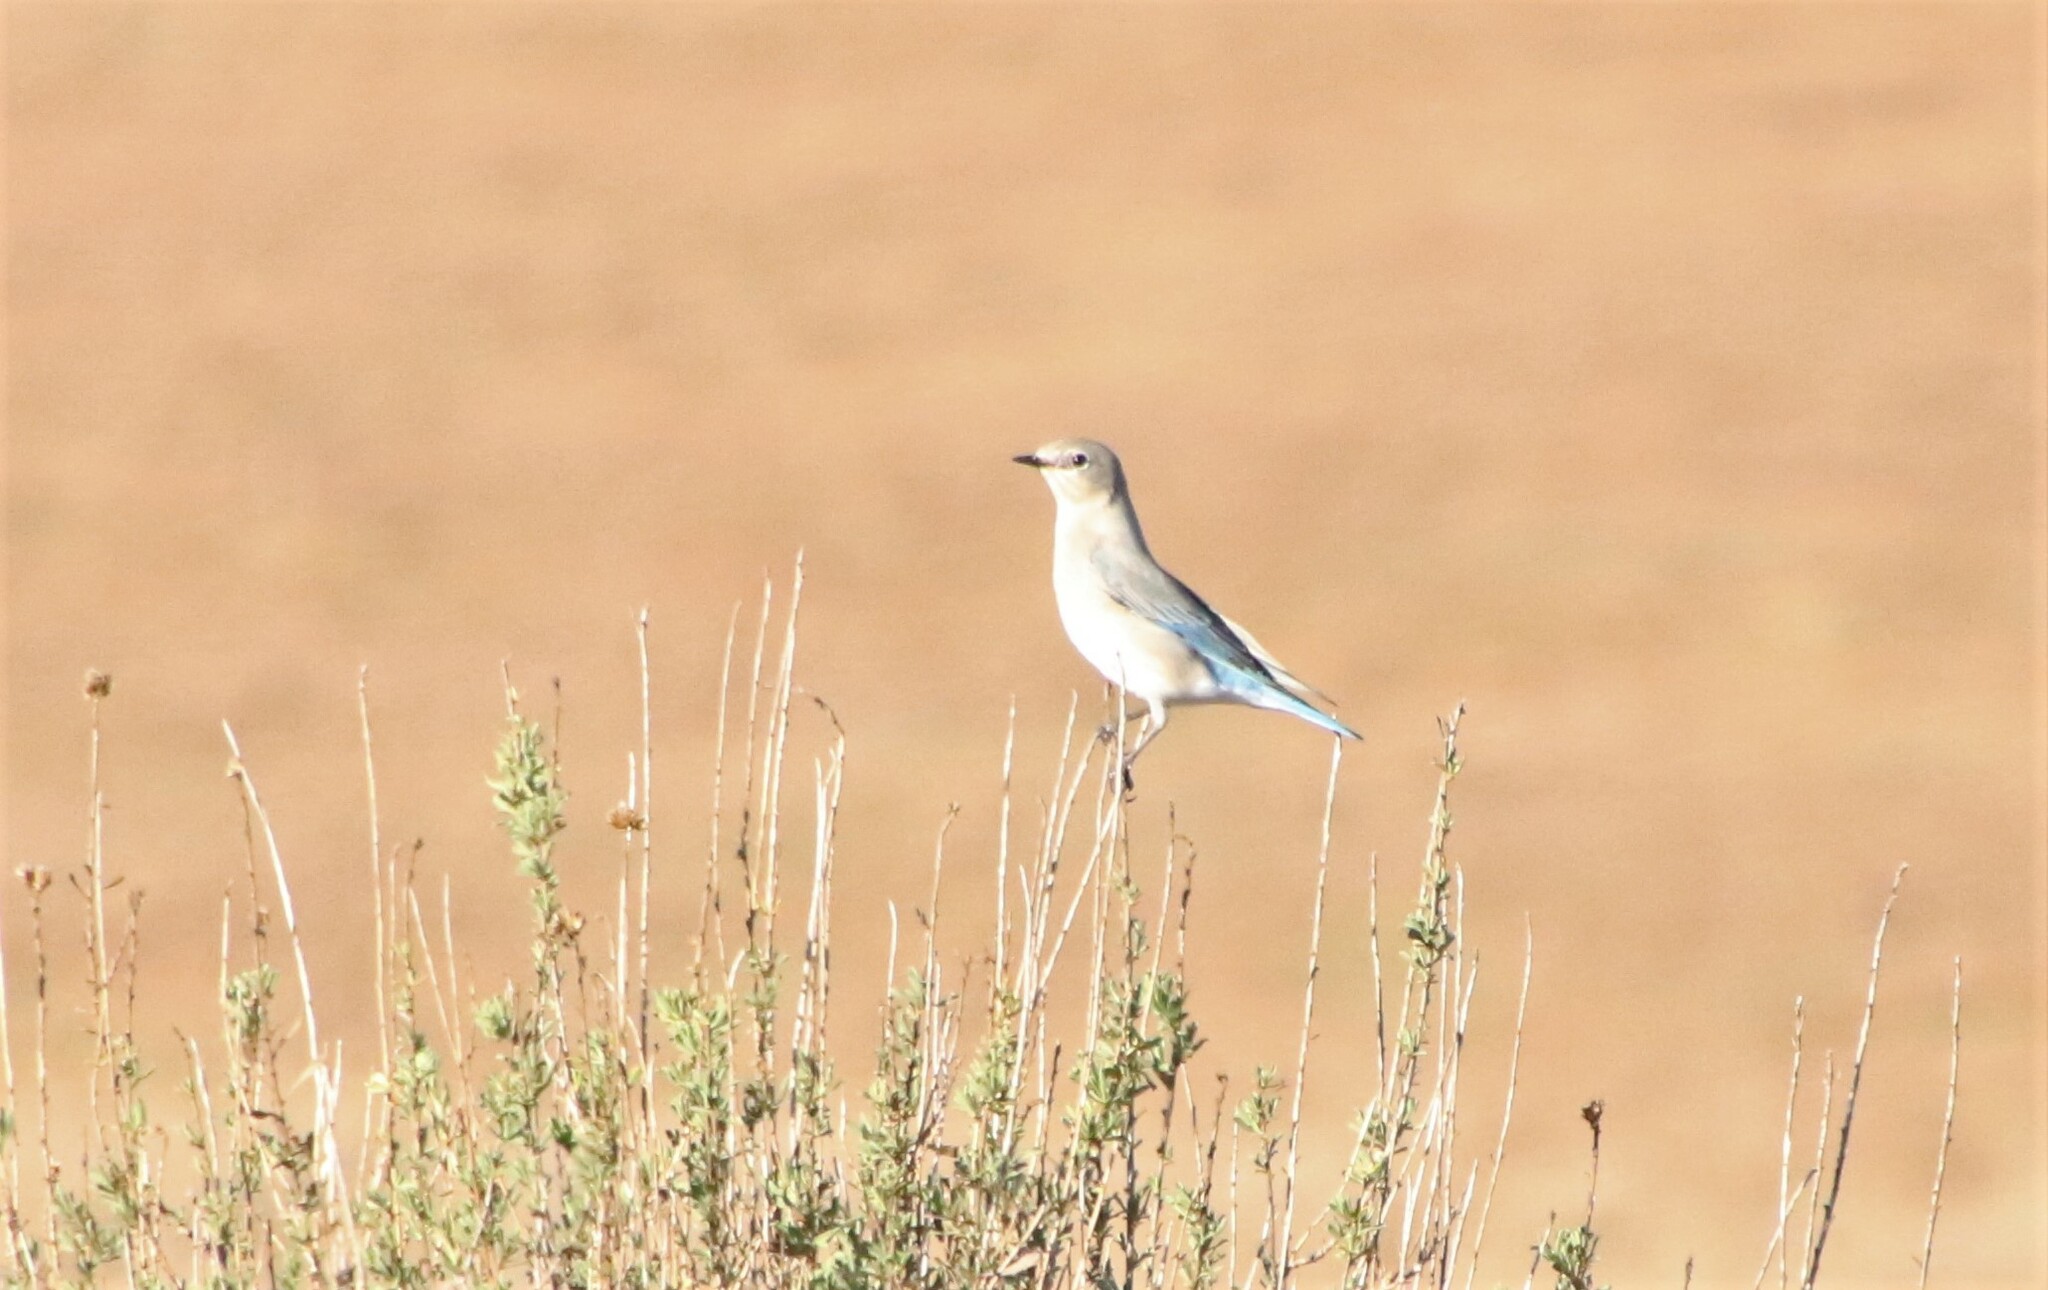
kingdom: Animalia
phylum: Chordata
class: Aves
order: Passeriformes
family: Turdidae
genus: Sialia
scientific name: Sialia currucoides
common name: Mountain bluebird
